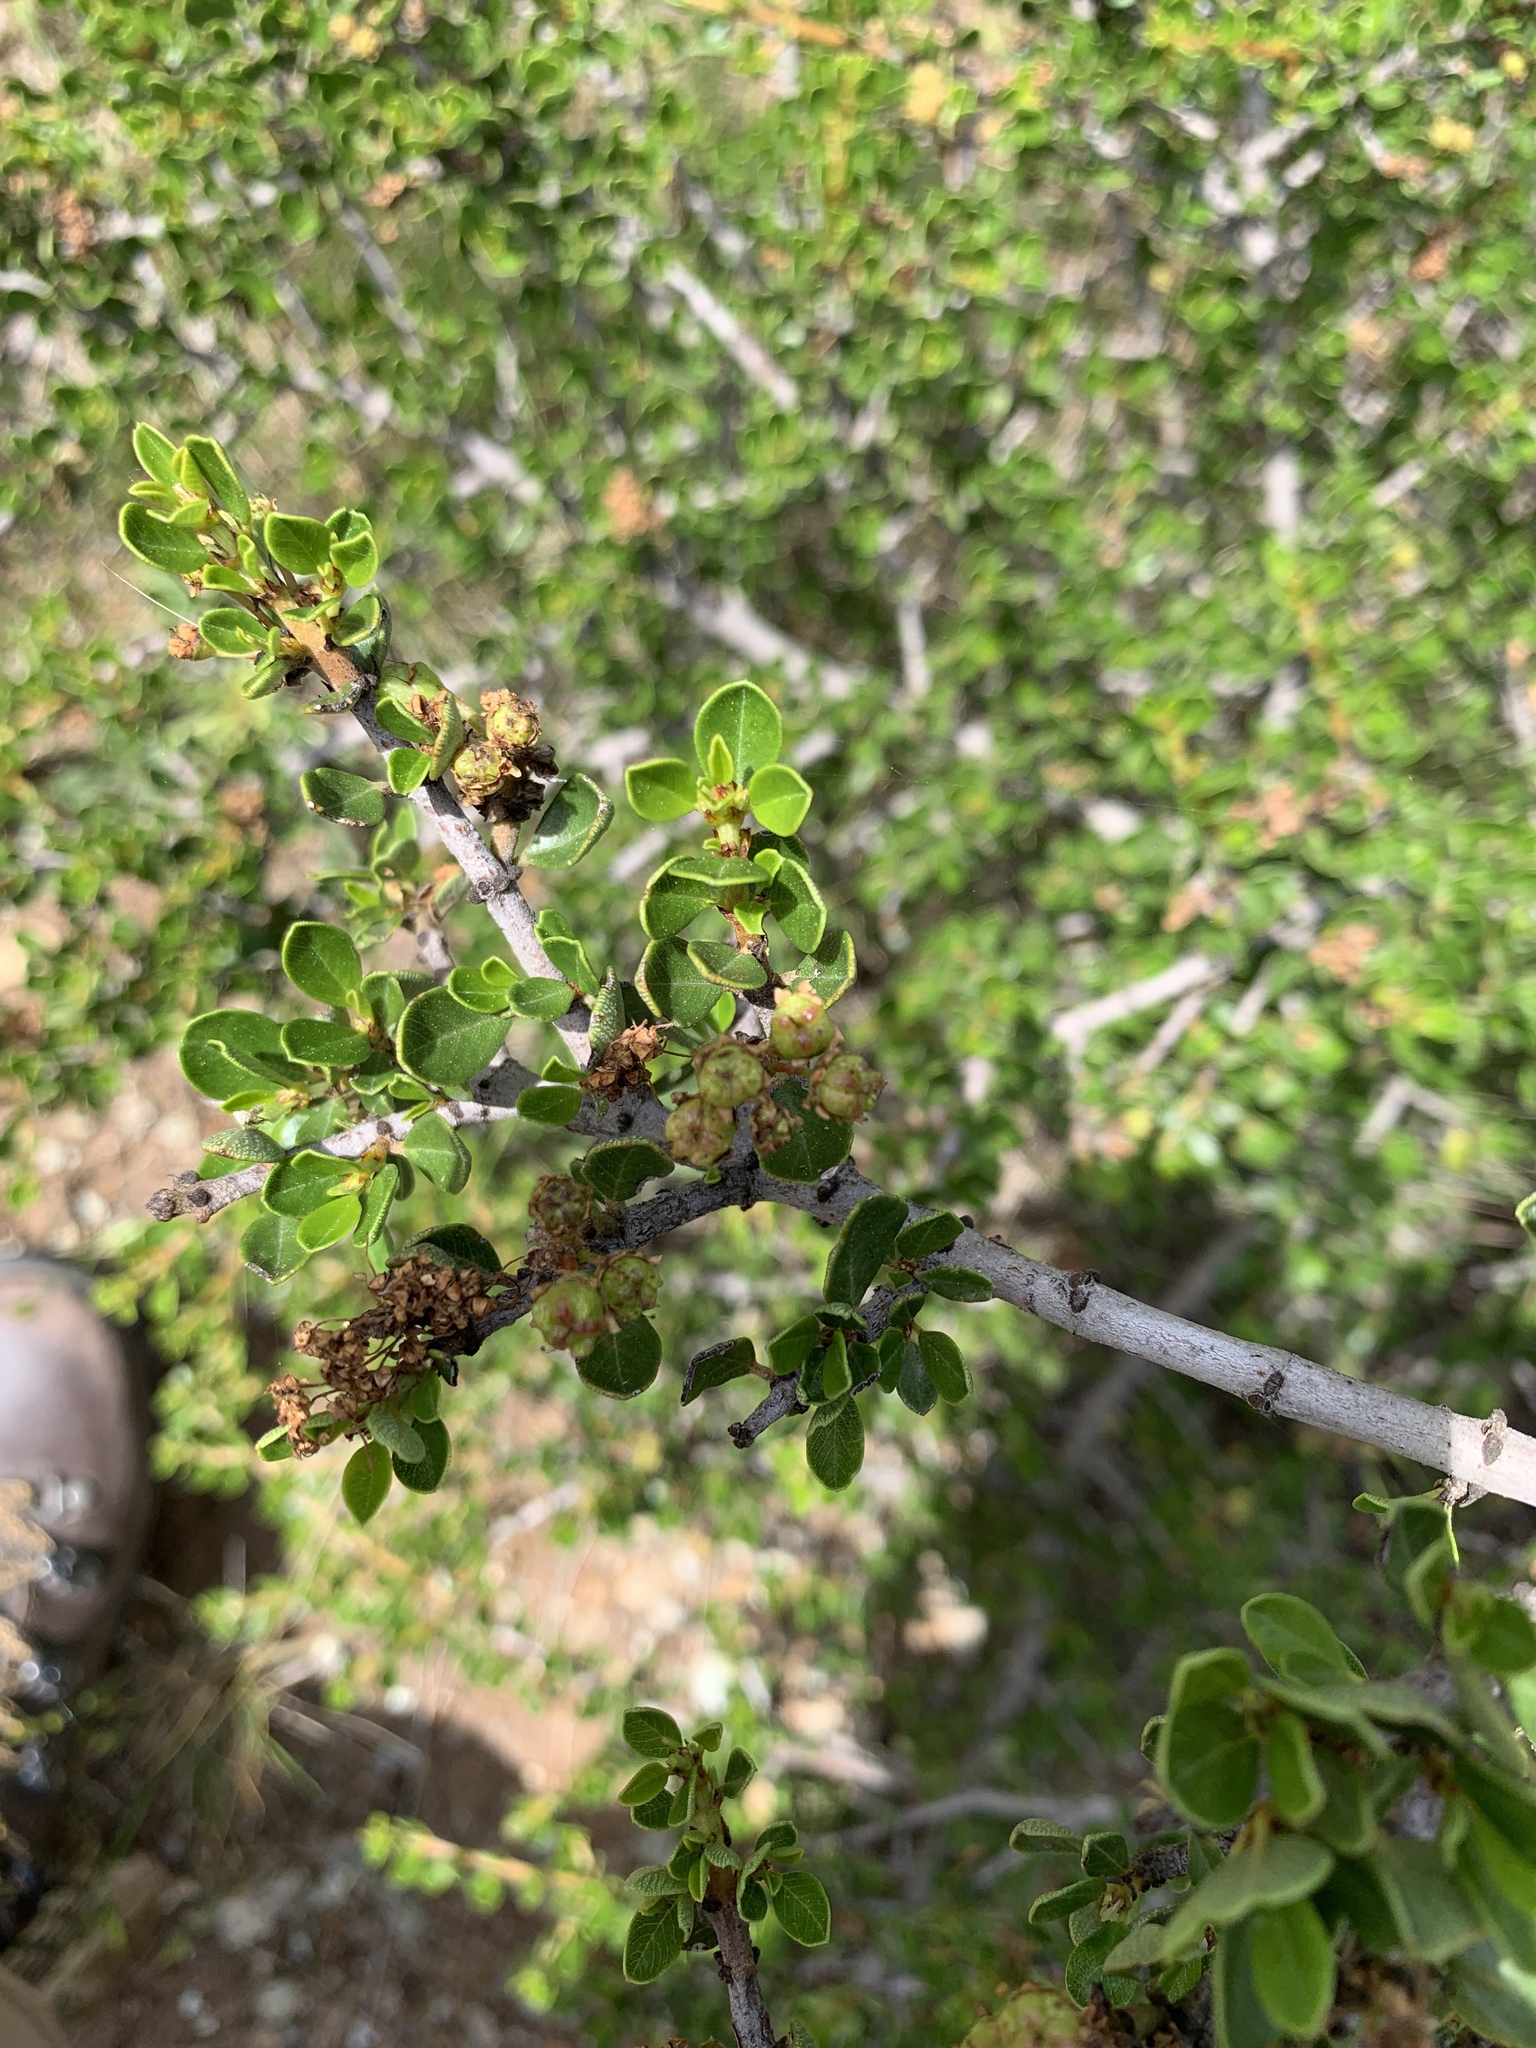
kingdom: Plantae
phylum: Tracheophyta
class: Magnoliopsida
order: Rosales
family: Rhamnaceae
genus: Ceanothus
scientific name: Ceanothus cuneatus
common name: Cuneate ceanothus
